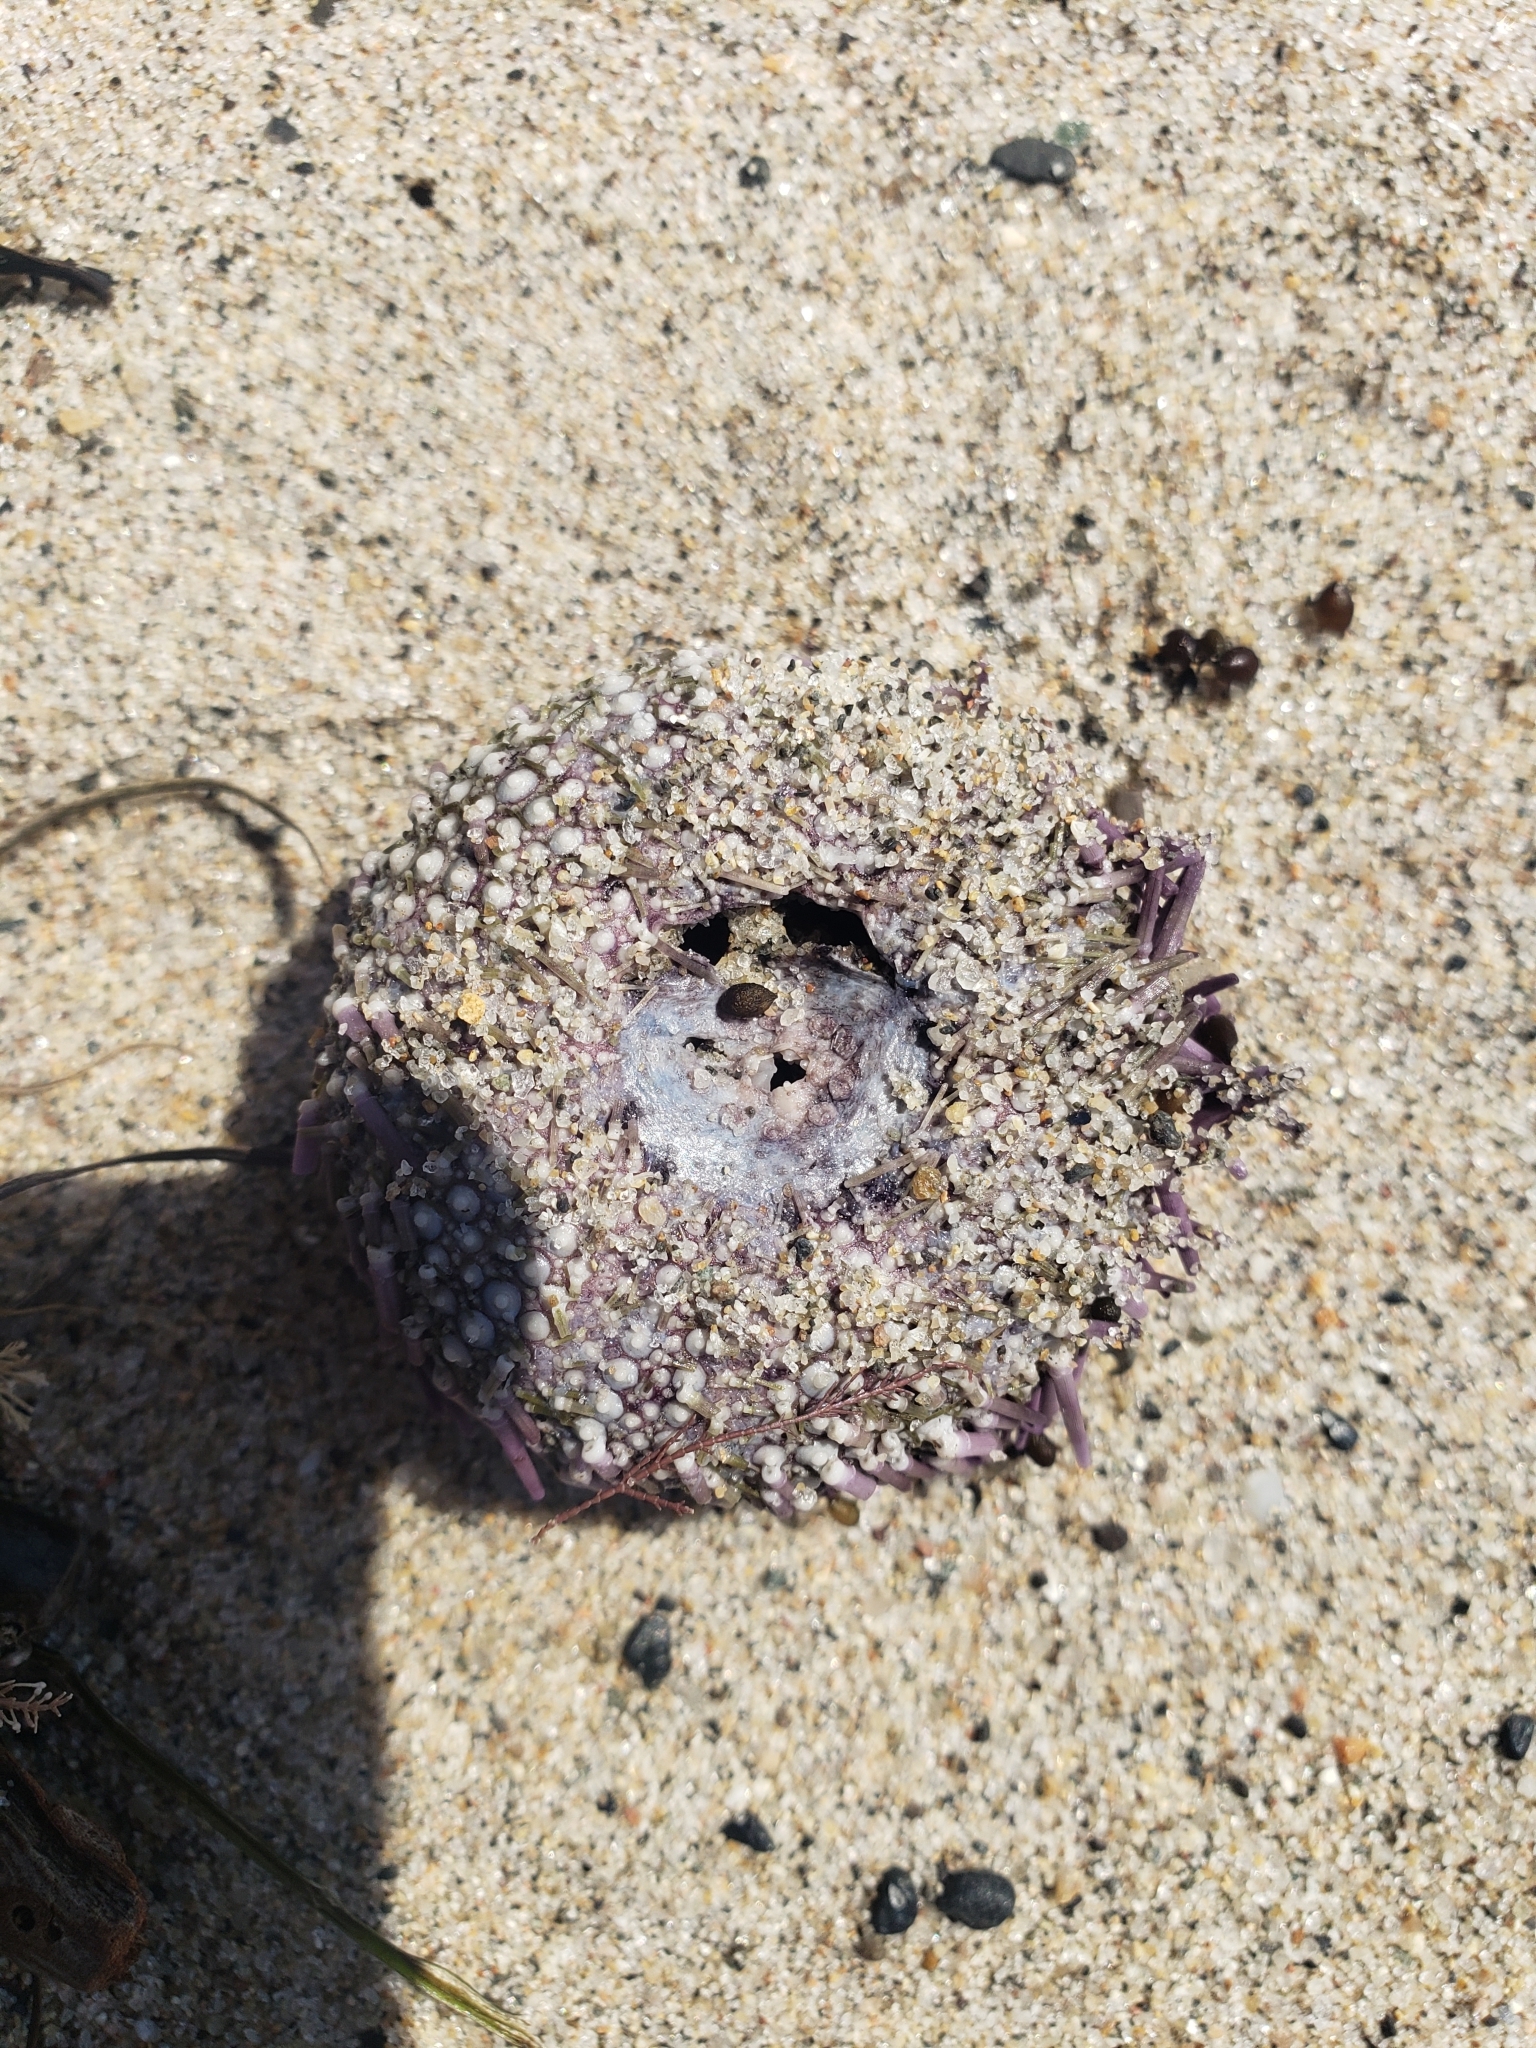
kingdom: Animalia
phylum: Echinodermata
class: Echinoidea
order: Camarodonta
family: Strongylocentrotidae
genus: Strongylocentrotus
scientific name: Strongylocentrotus purpuratus
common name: Purple sea urchin
